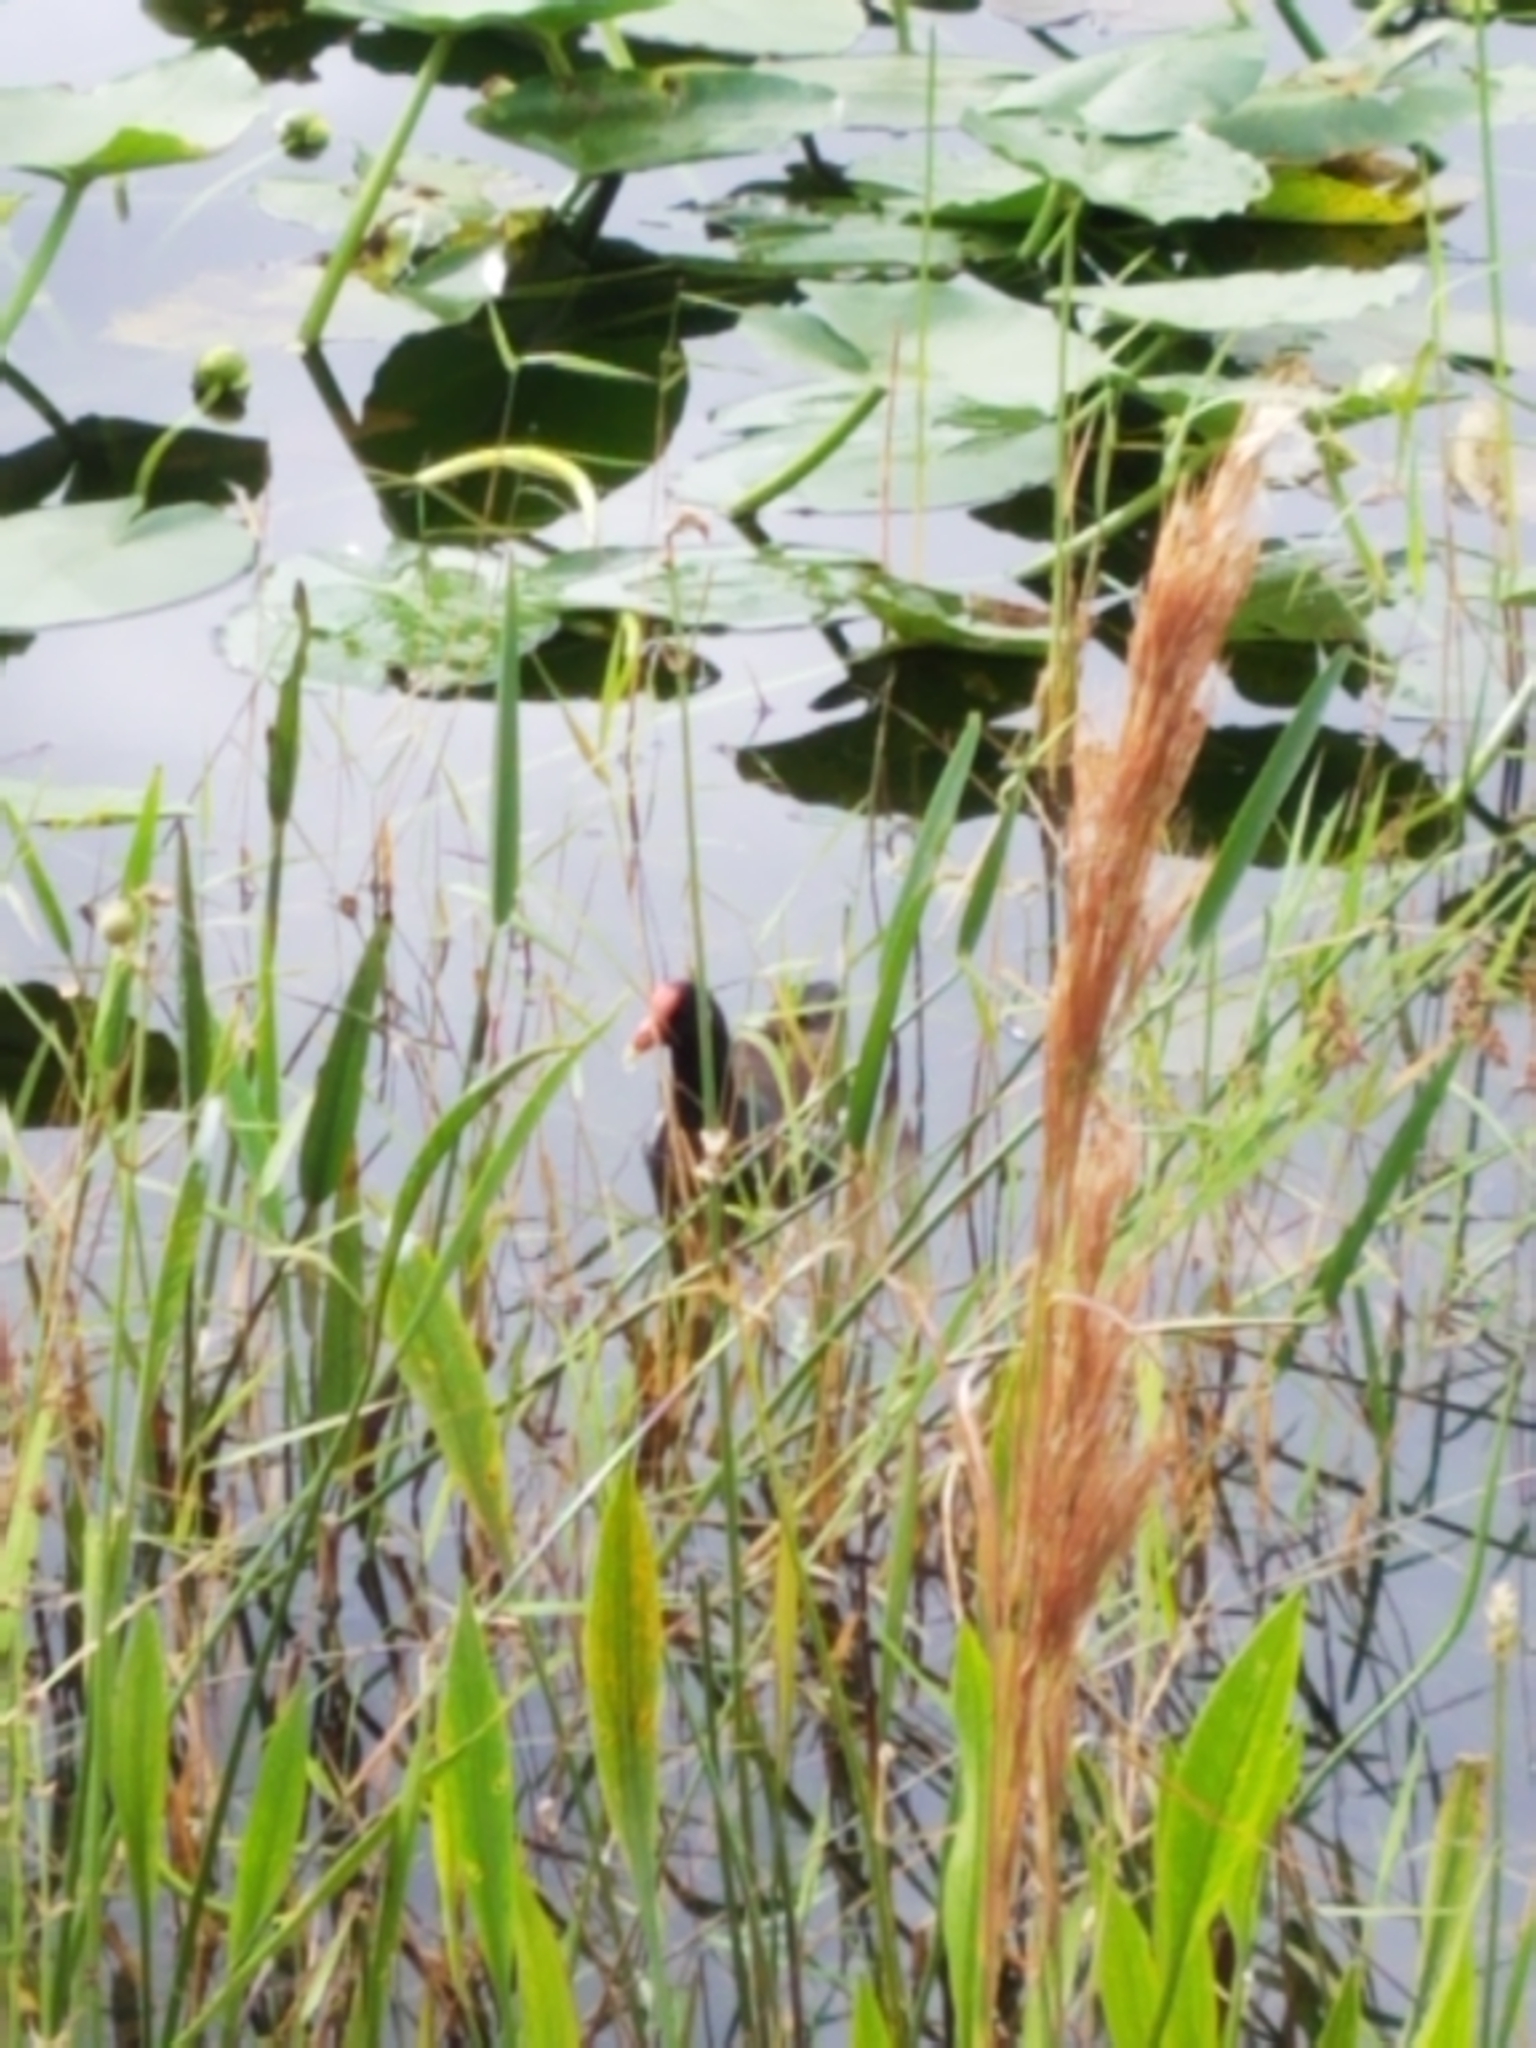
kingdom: Animalia
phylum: Chordata
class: Aves
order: Gruiformes
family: Rallidae
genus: Gallinula
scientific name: Gallinula chloropus
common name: Common moorhen
